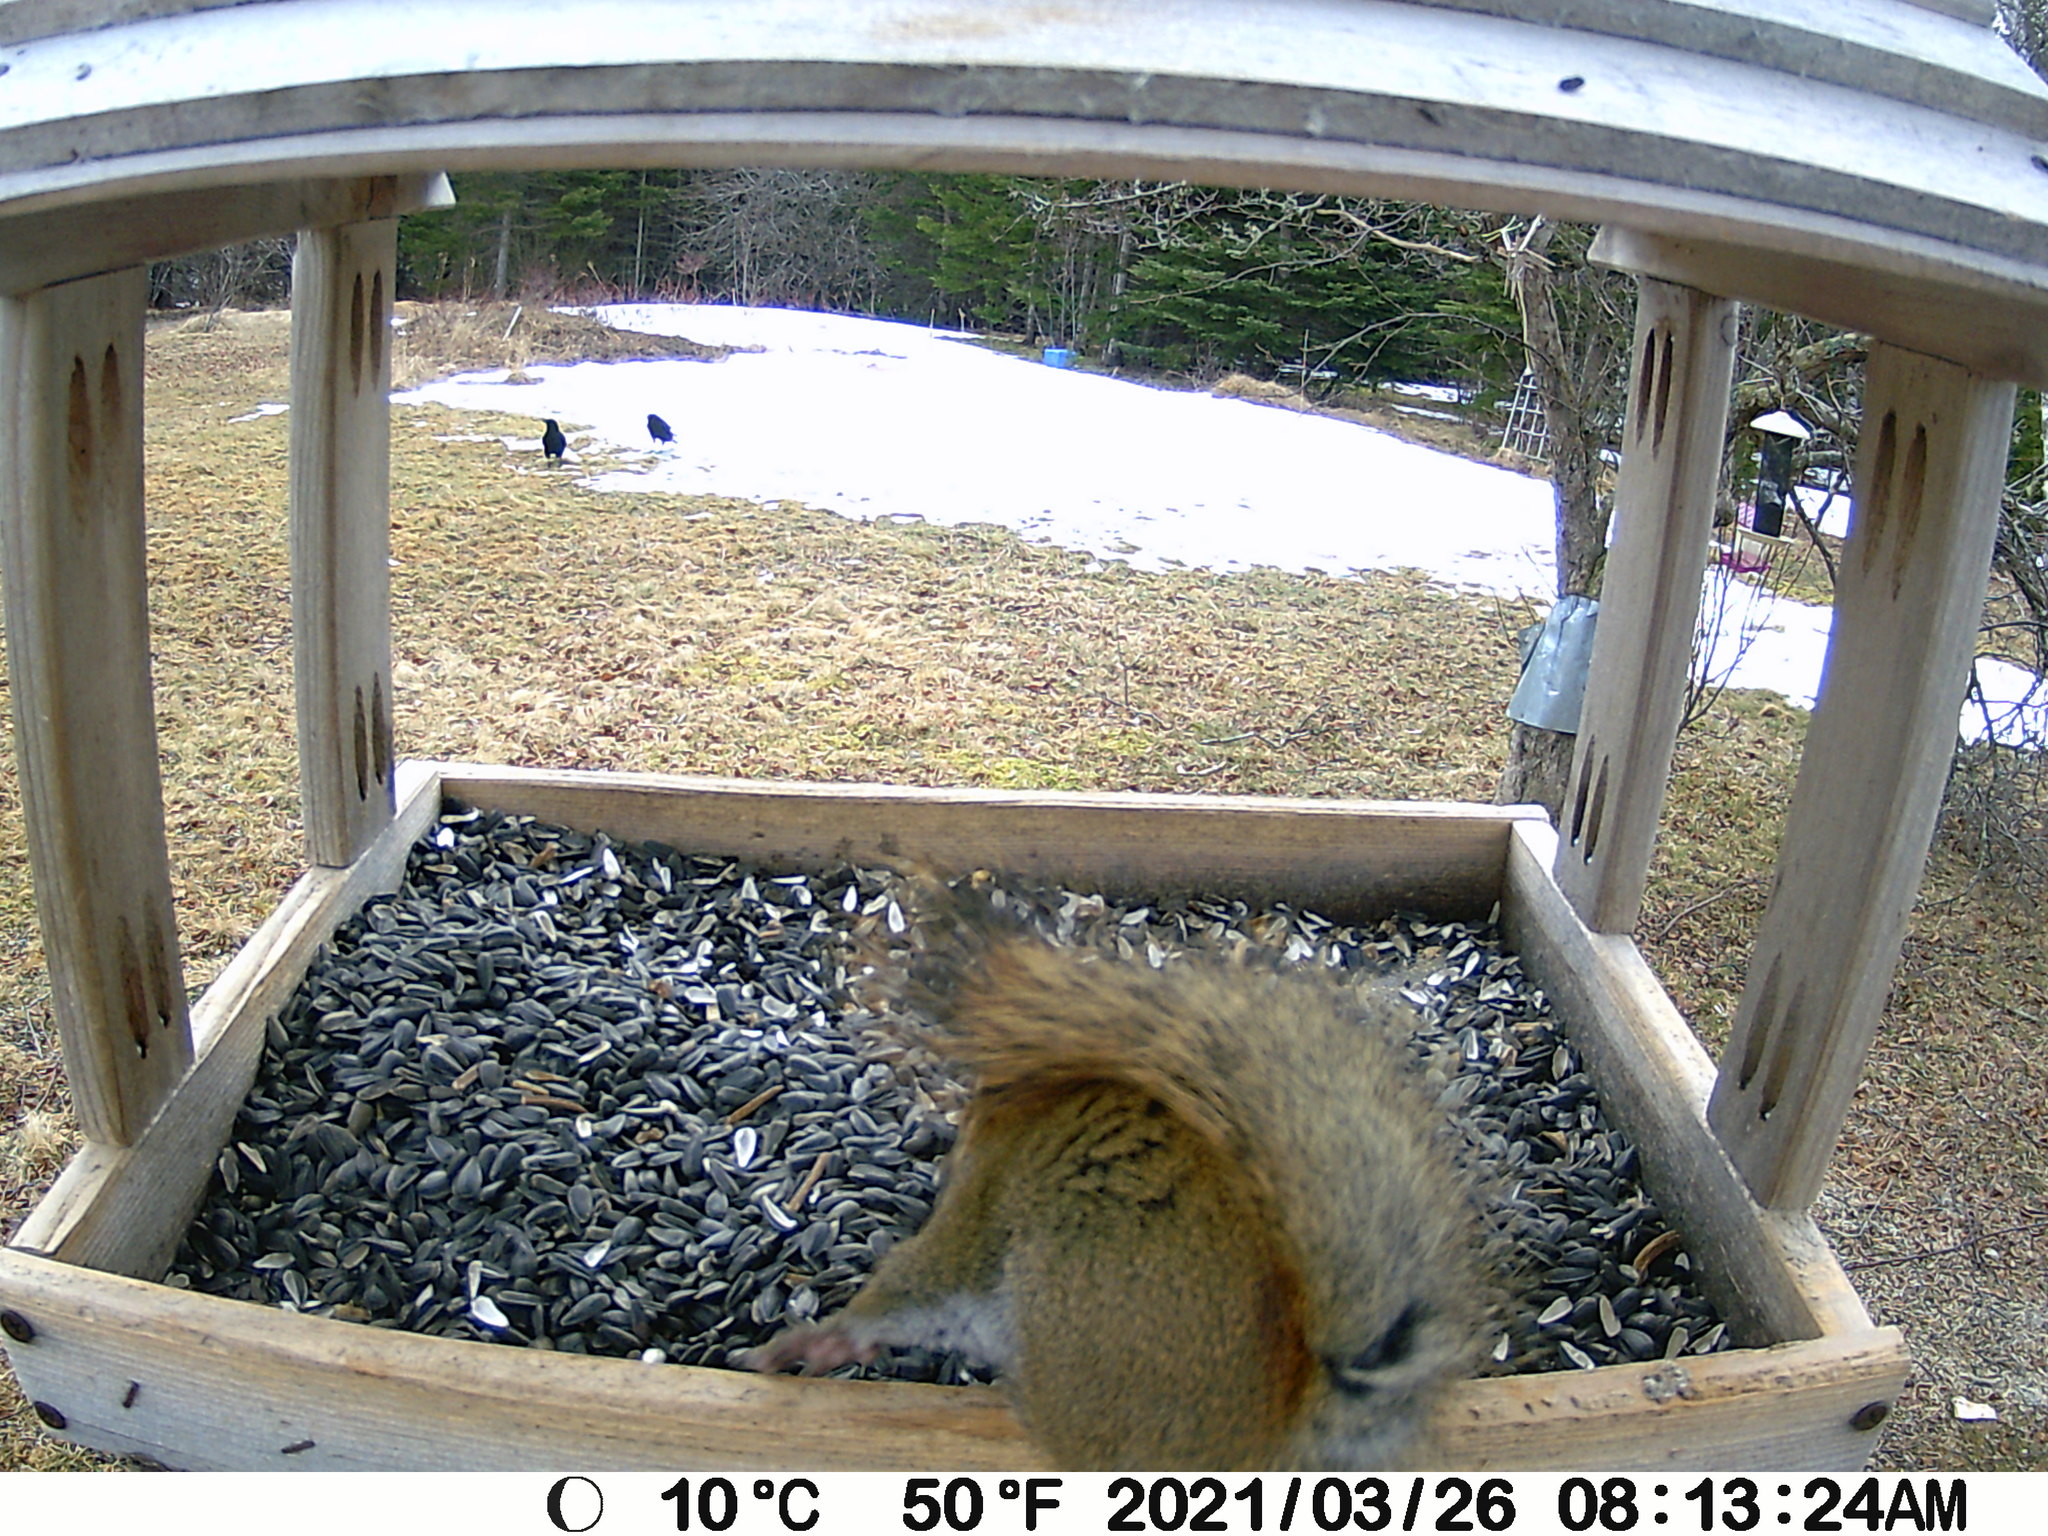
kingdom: Animalia
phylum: Chordata
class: Aves
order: Passeriformes
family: Corvidae
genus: Corvus
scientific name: Corvus brachyrhynchos
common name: American crow
